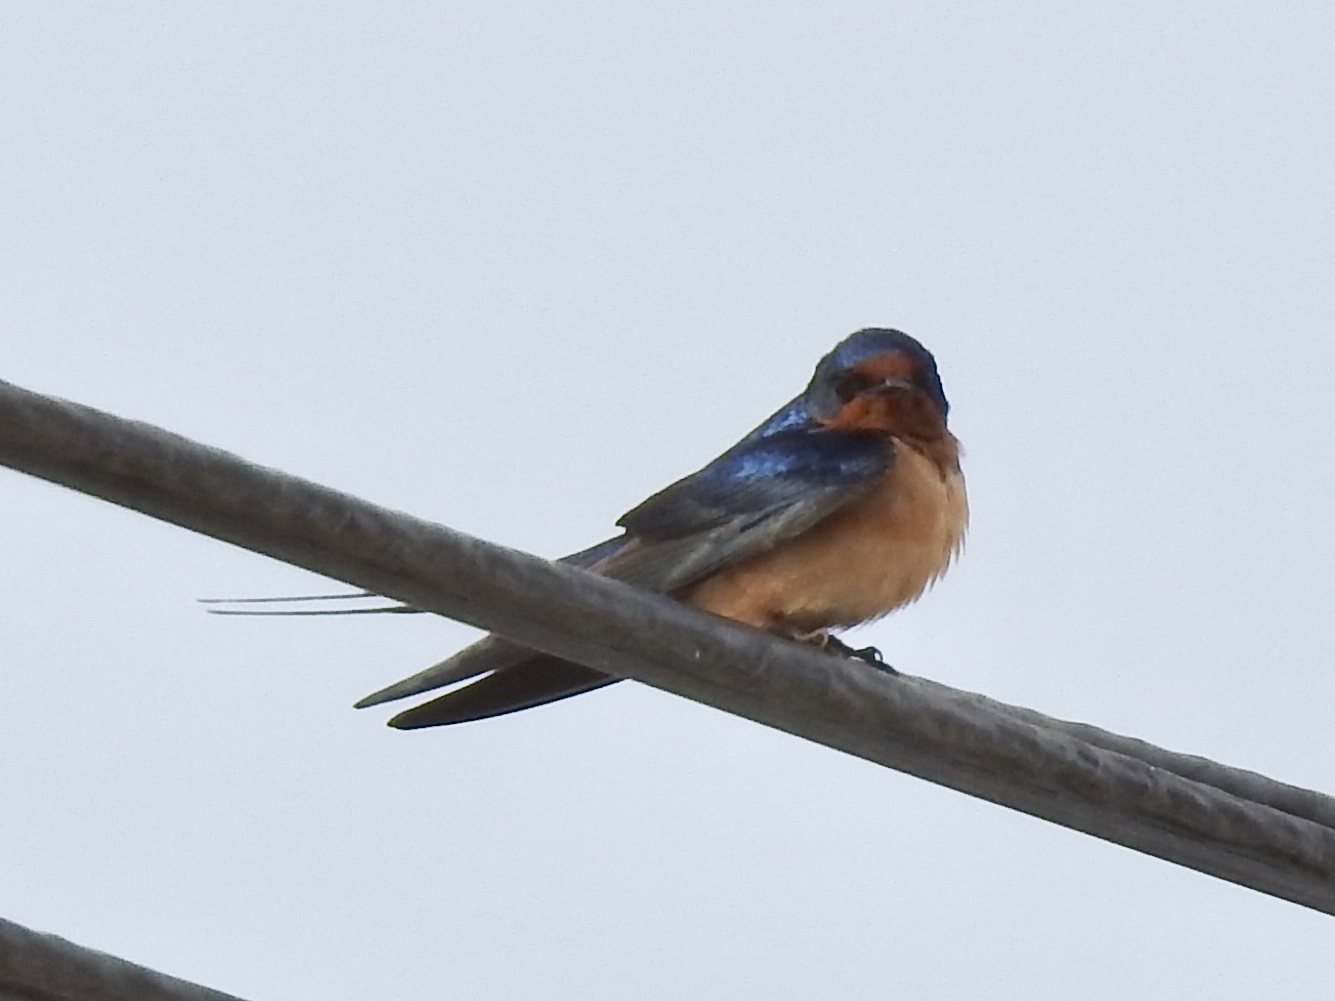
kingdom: Animalia
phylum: Chordata
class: Aves
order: Passeriformes
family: Hirundinidae
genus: Hirundo
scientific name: Hirundo rustica
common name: Barn swallow
